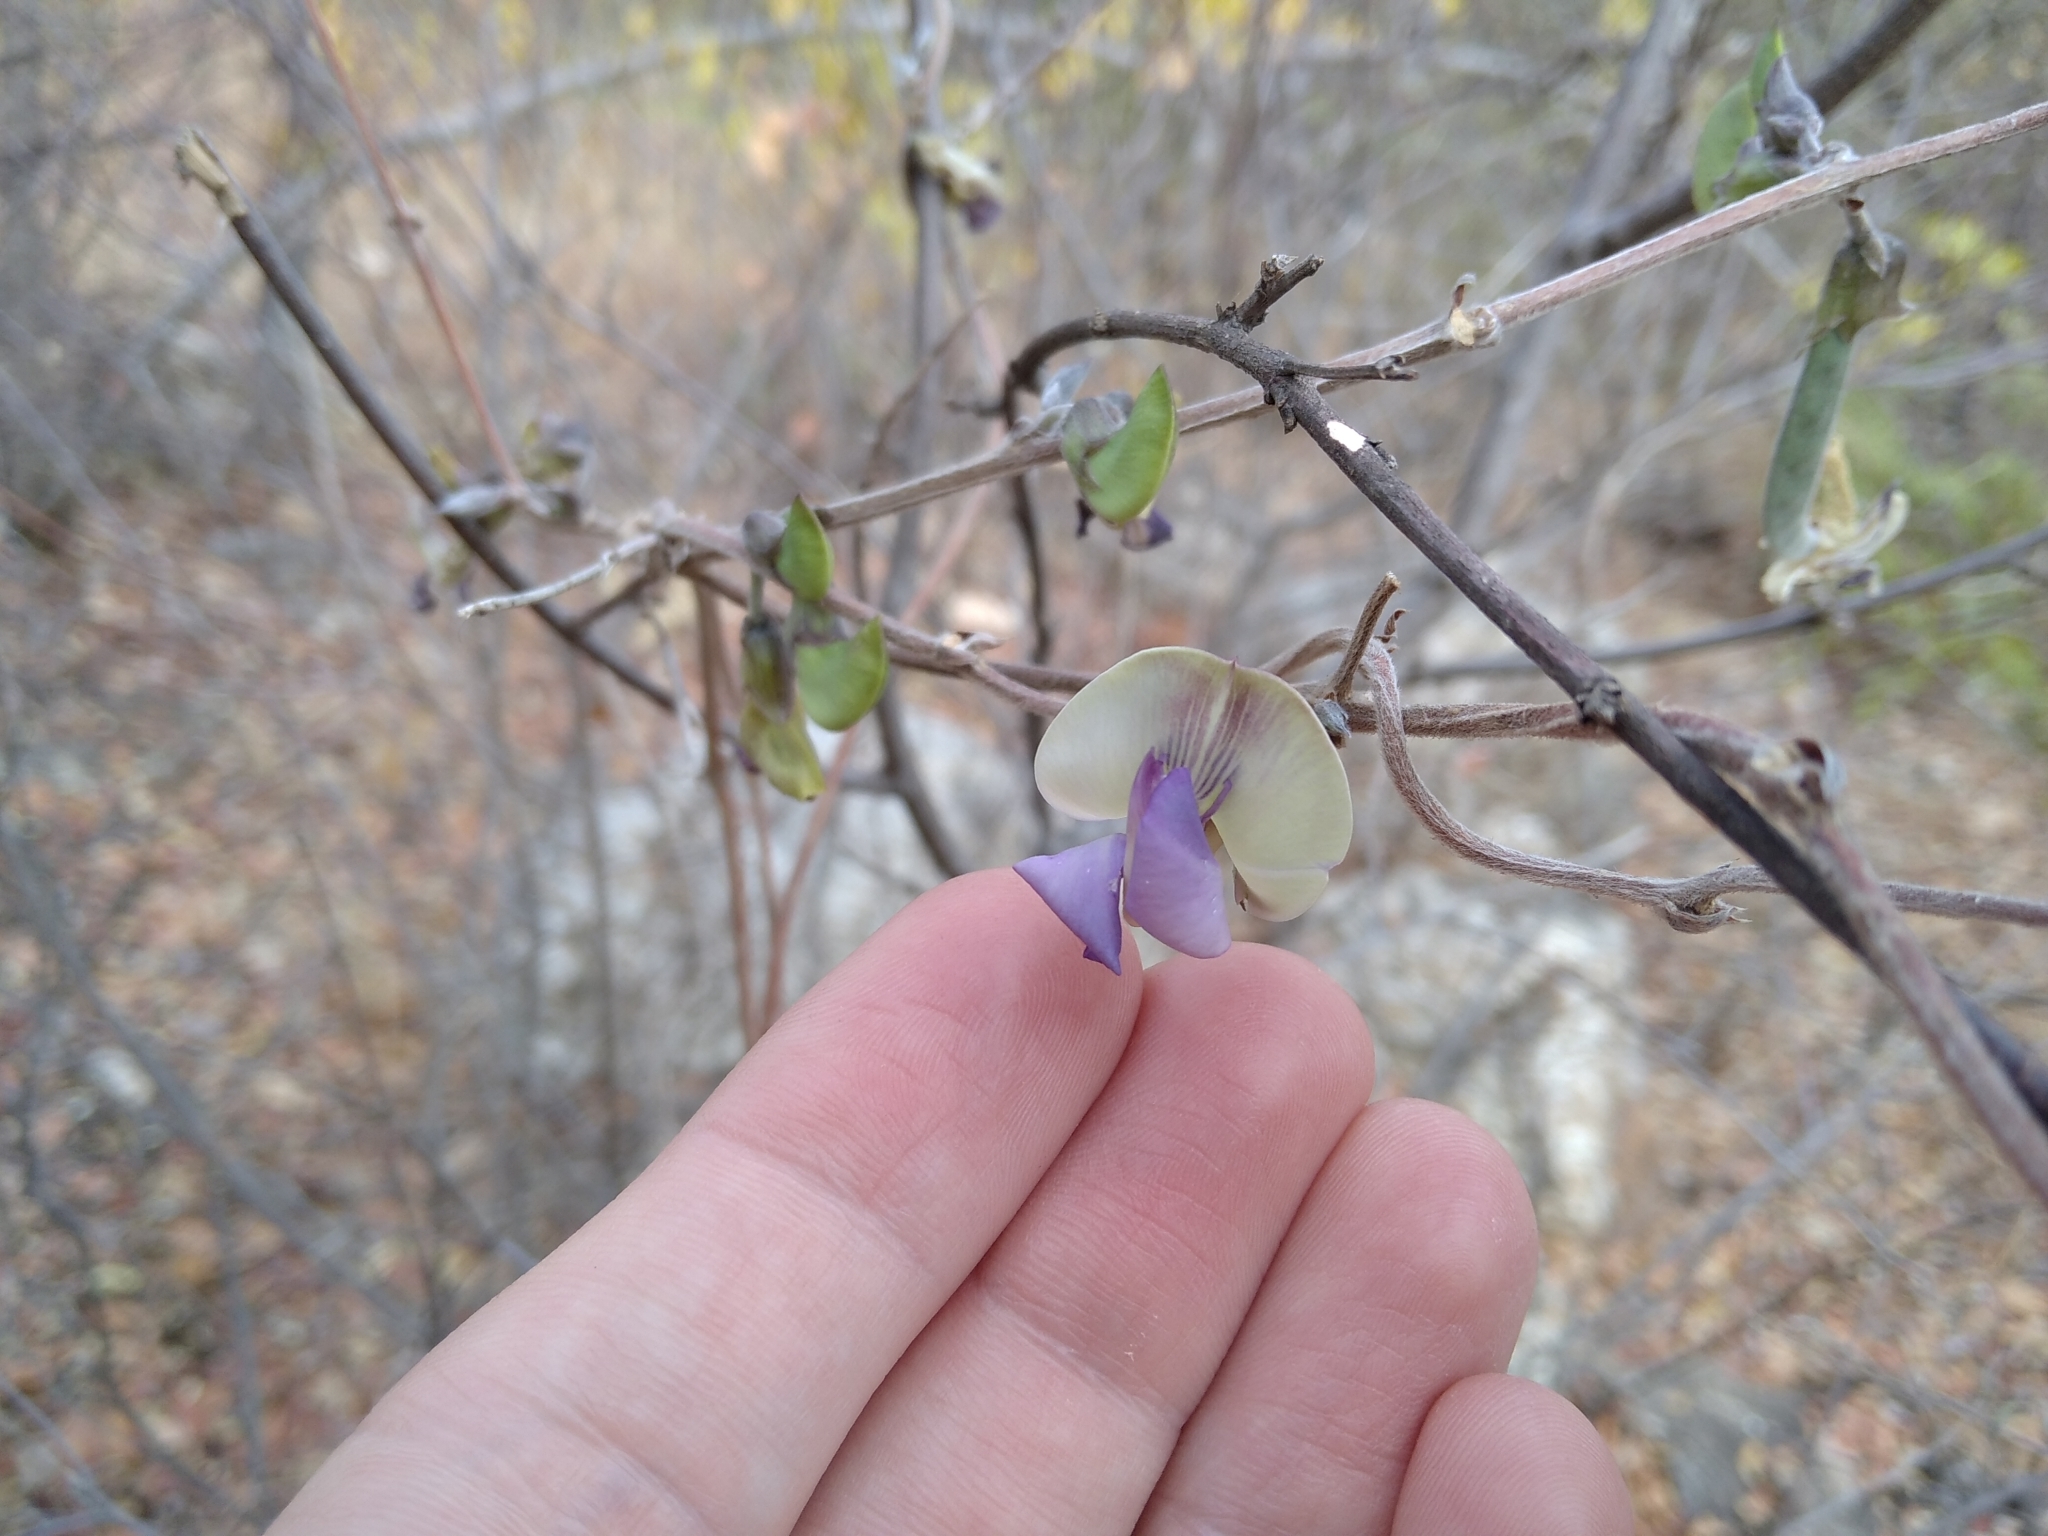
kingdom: Plantae
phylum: Tracheophyta
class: Magnoliopsida
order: Fabales
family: Fabaceae
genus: Decorsea
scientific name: Decorsea schlechteri
